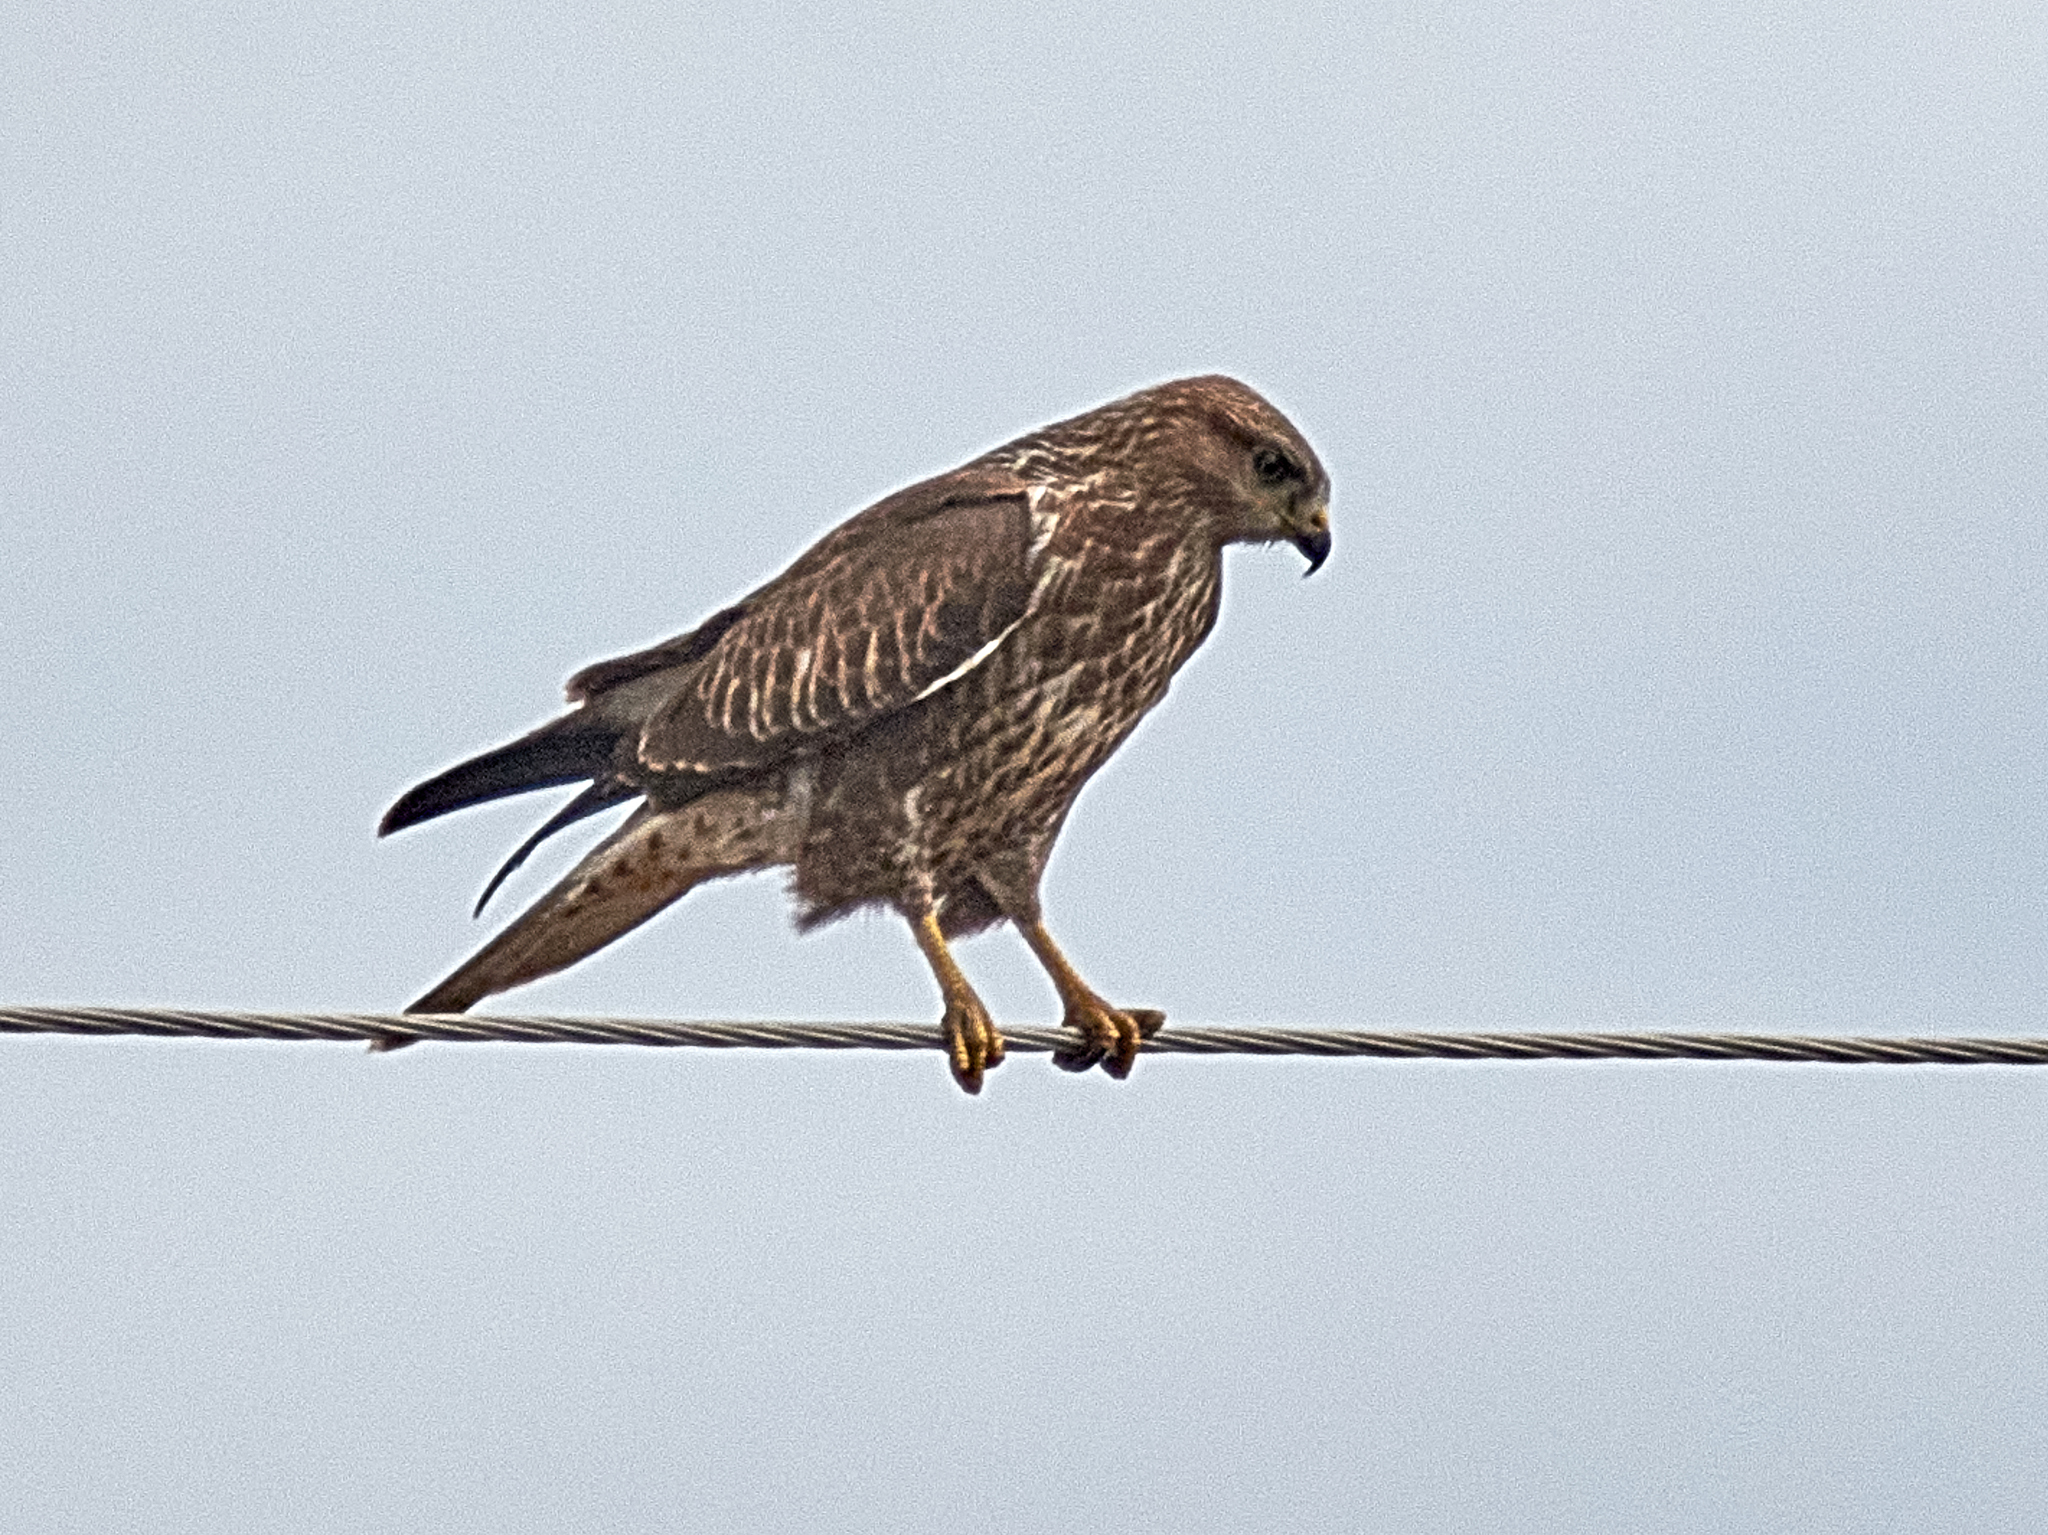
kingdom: Animalia
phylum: Chordata
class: Aves
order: Accipitriformes
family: Accipitridae
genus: Buteo
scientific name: Buteo buteo
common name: Common buzzard
